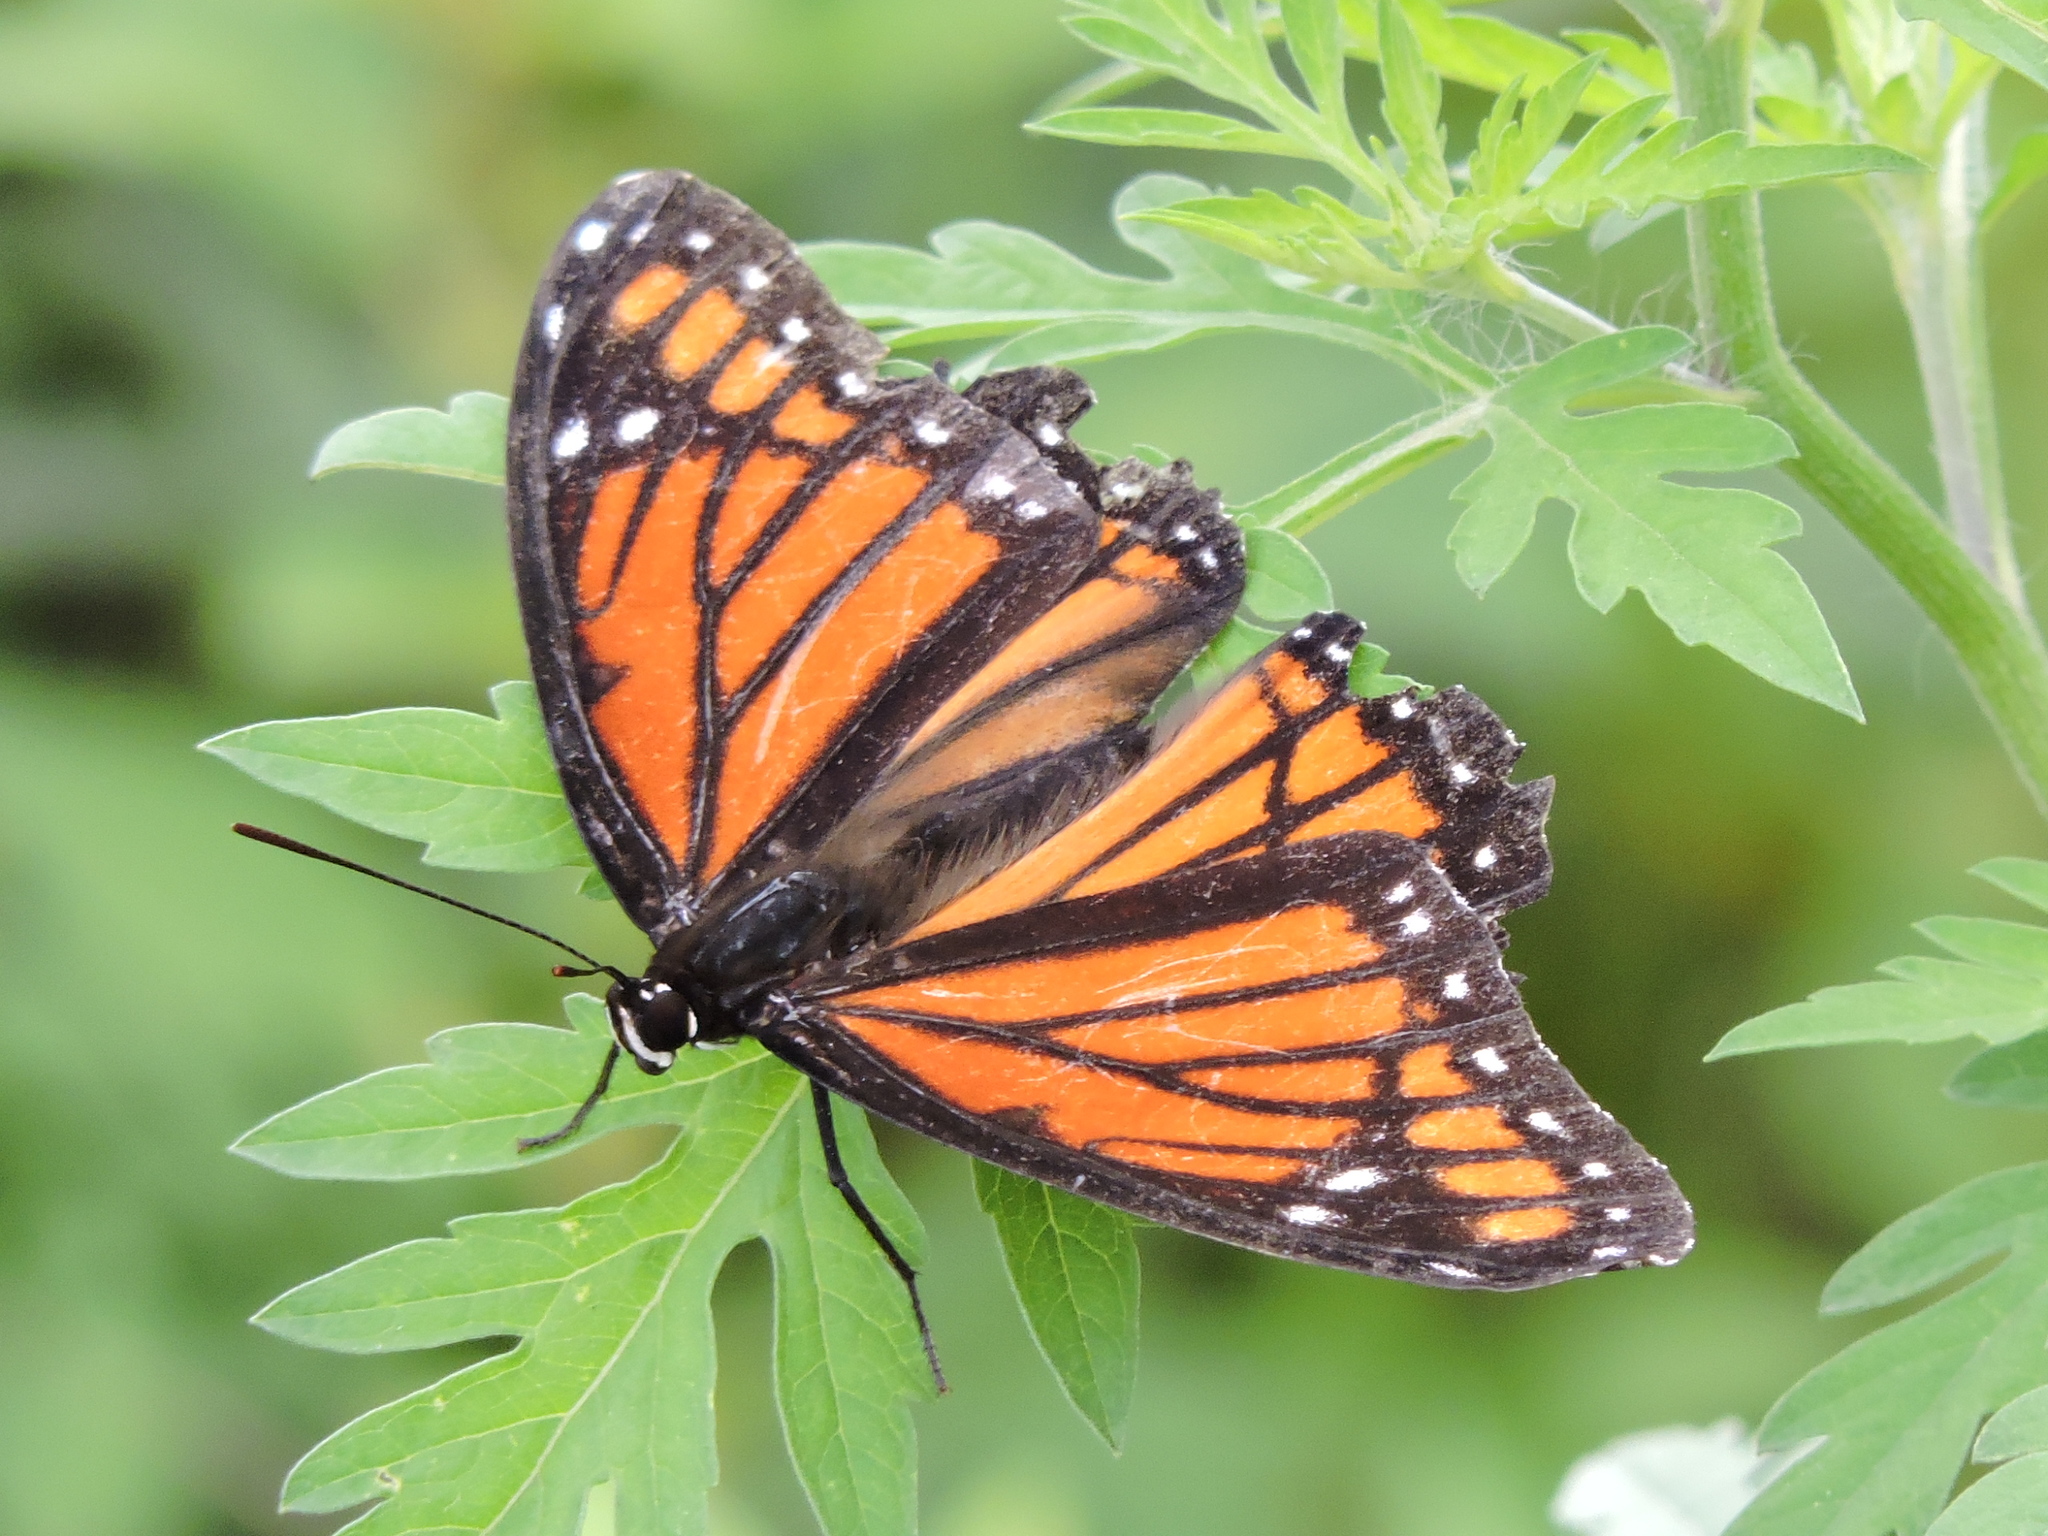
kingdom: Animalia
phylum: Arthropoda
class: Insecta
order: Lepidoptera
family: Nymphalidae
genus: Limenitis
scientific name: Limenitis archippus
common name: Viceroy
